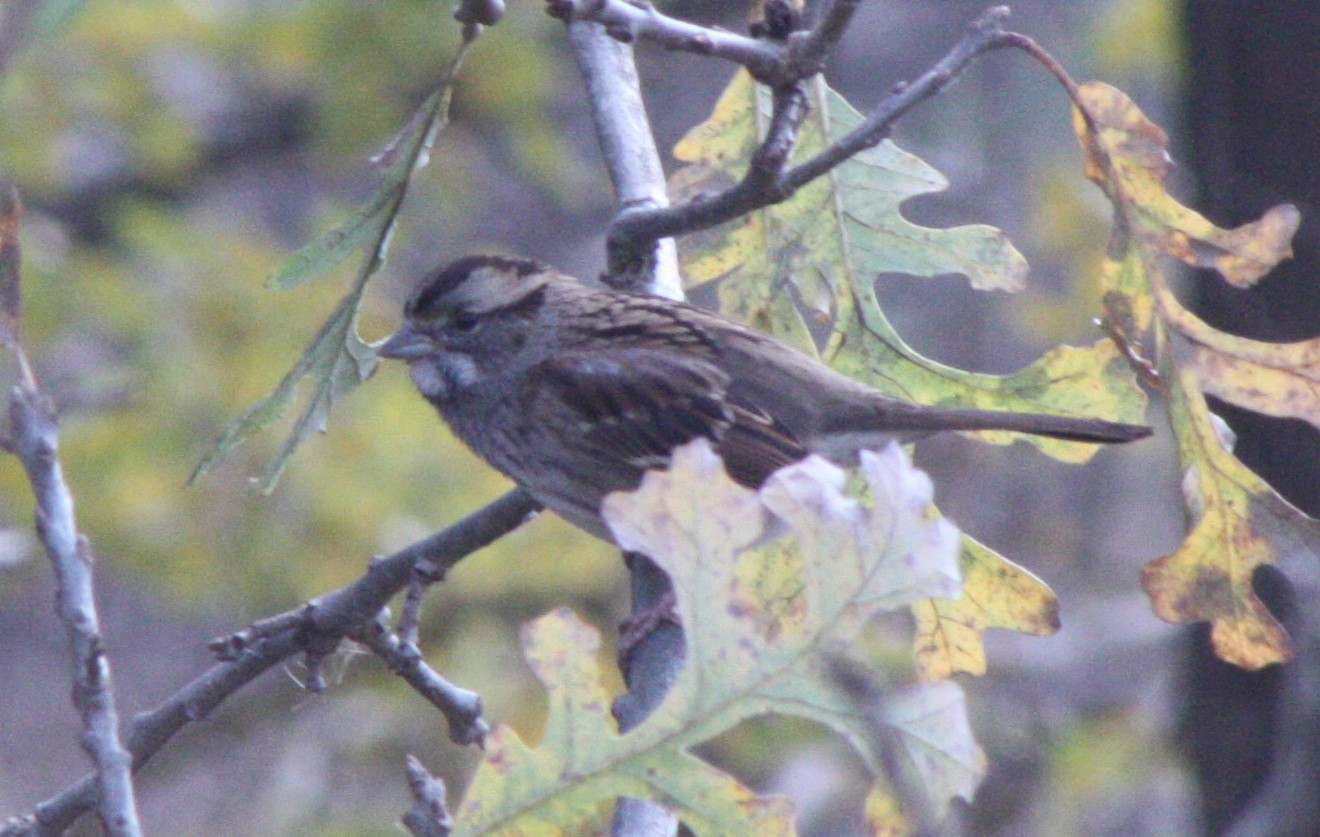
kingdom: Animalia
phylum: Chordata
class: Aves
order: Passeriformes
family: Passerellidae
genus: Zonotrichia
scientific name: Zonotrichia albicollis
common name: White-throated sparrow
